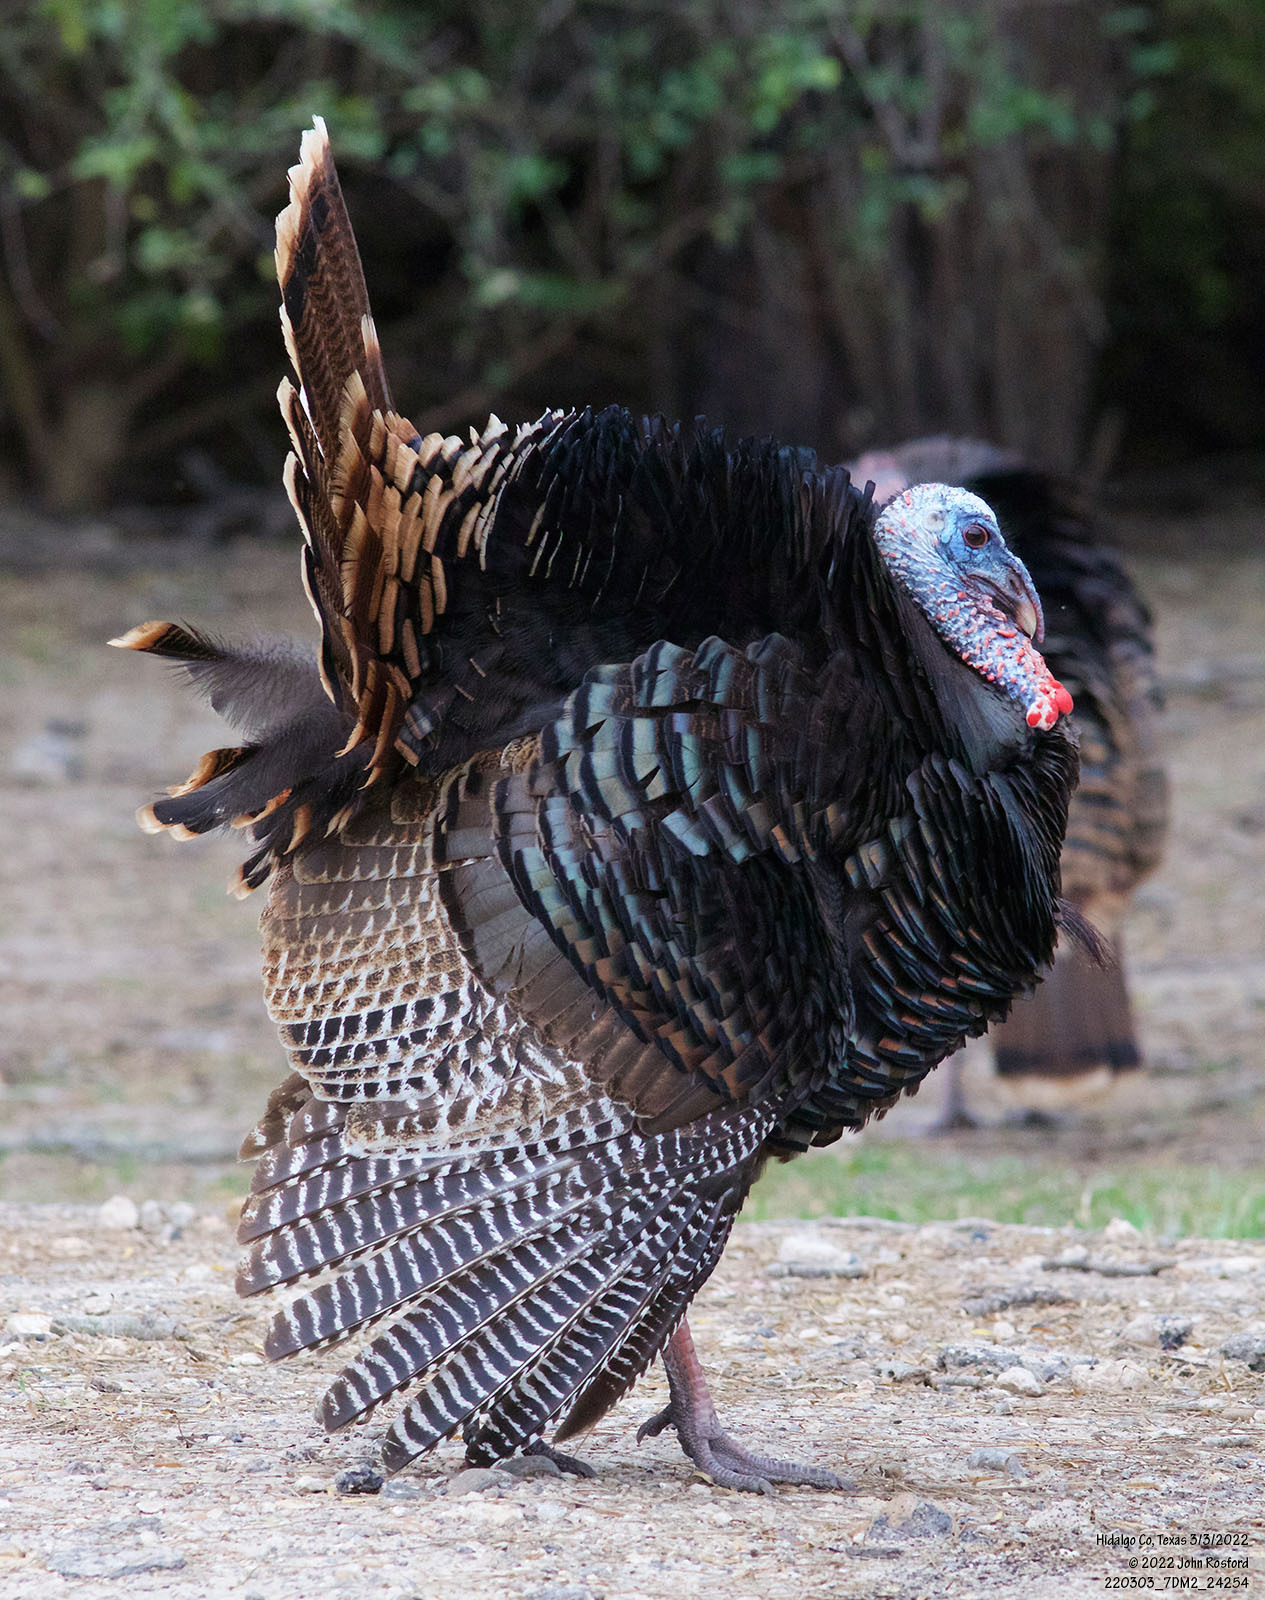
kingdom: Animalia
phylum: Chordata
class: Aves
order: Galliformes
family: Phasianidae
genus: Meleagris
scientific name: Meleagris gallopavo
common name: Wild turkey
